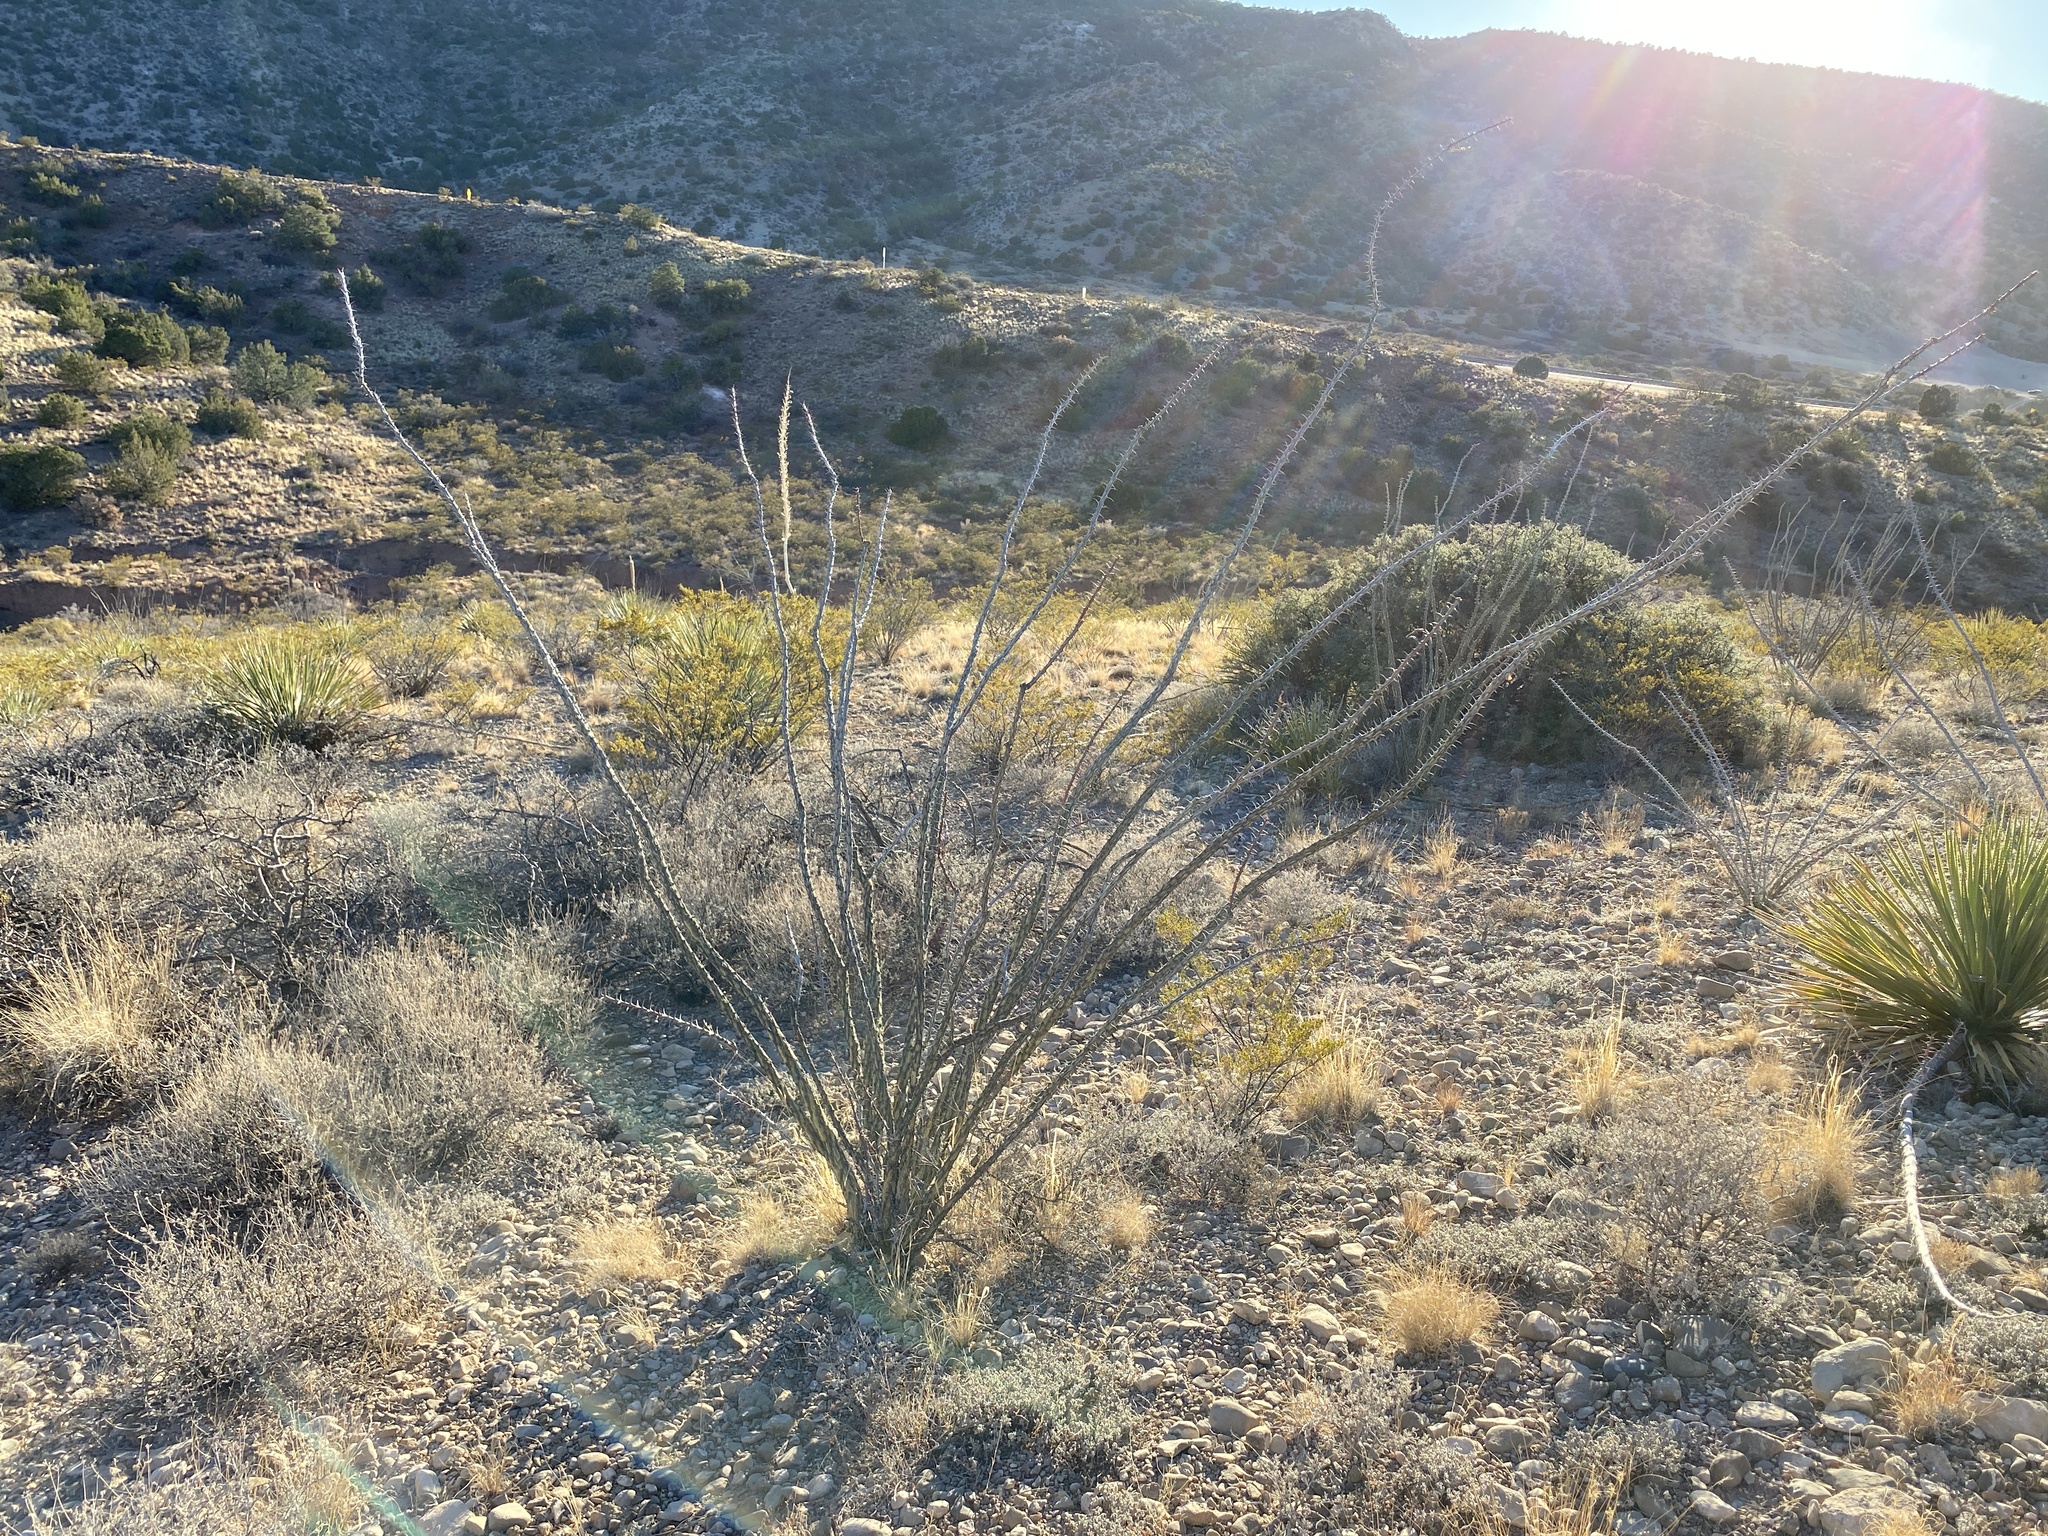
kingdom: Plantae
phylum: Tracheophyta
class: Magnoliopsida
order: Ericales
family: Fouquieriaceae
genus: Fouquieria
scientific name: Fouquieria splendens
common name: Vine-cactus
